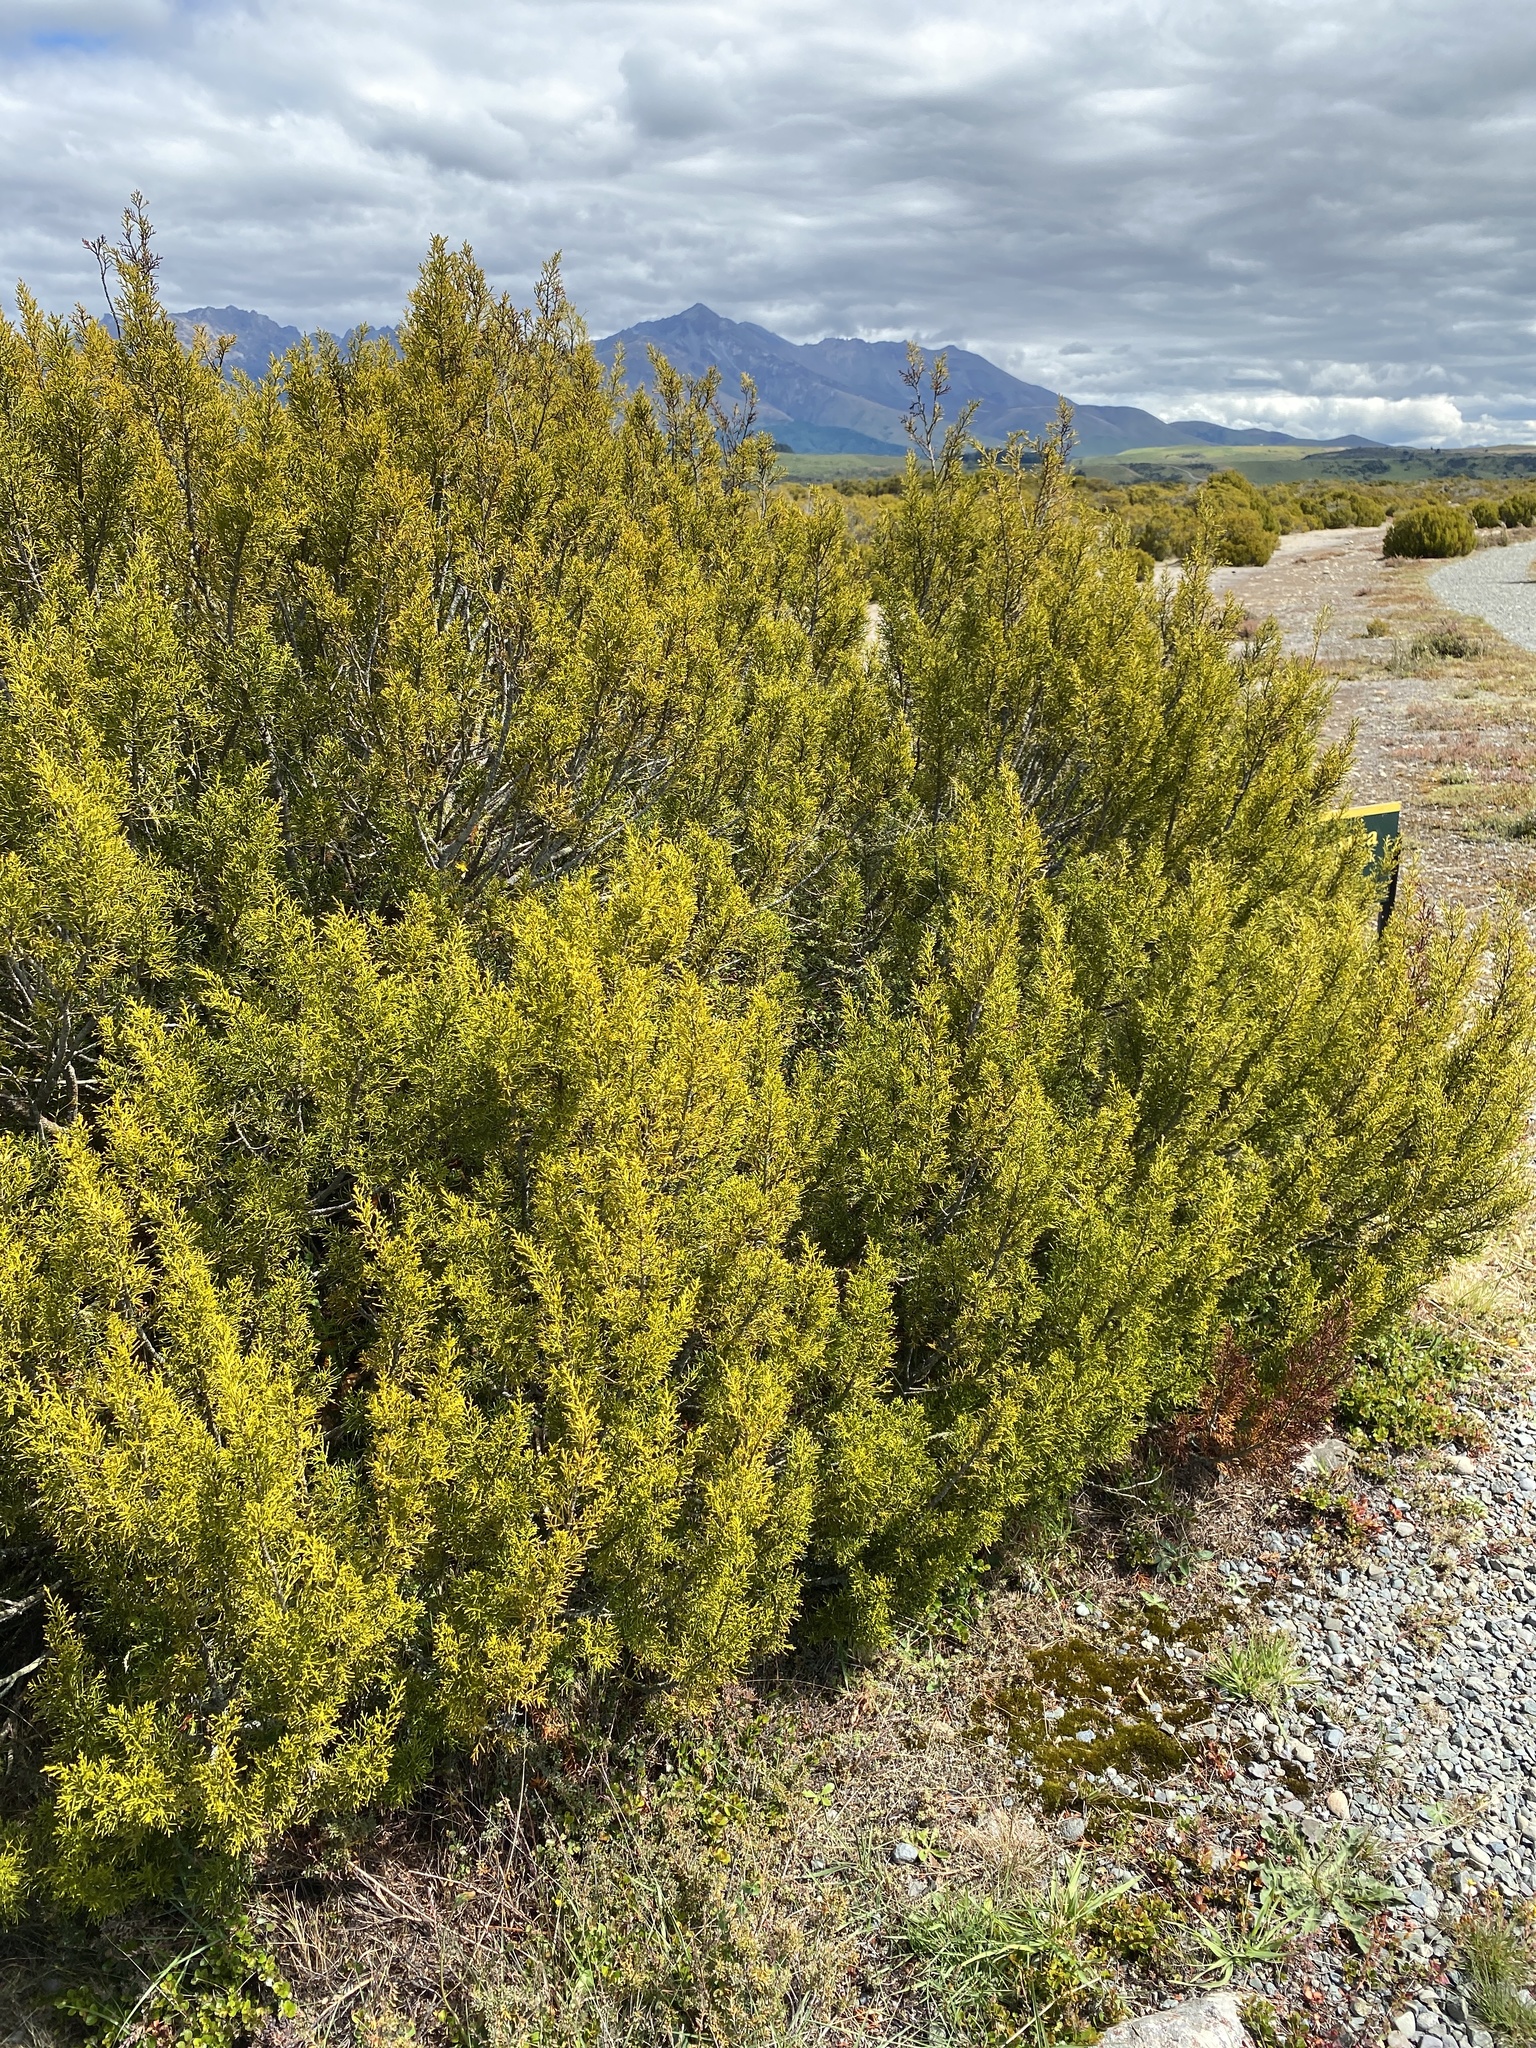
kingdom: Plantae
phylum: Tracheophyta
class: Pinopsida
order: Pinales
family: Podocarpaceae
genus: Halocarpus
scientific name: Halocarpus bidwillii
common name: Bog pine
